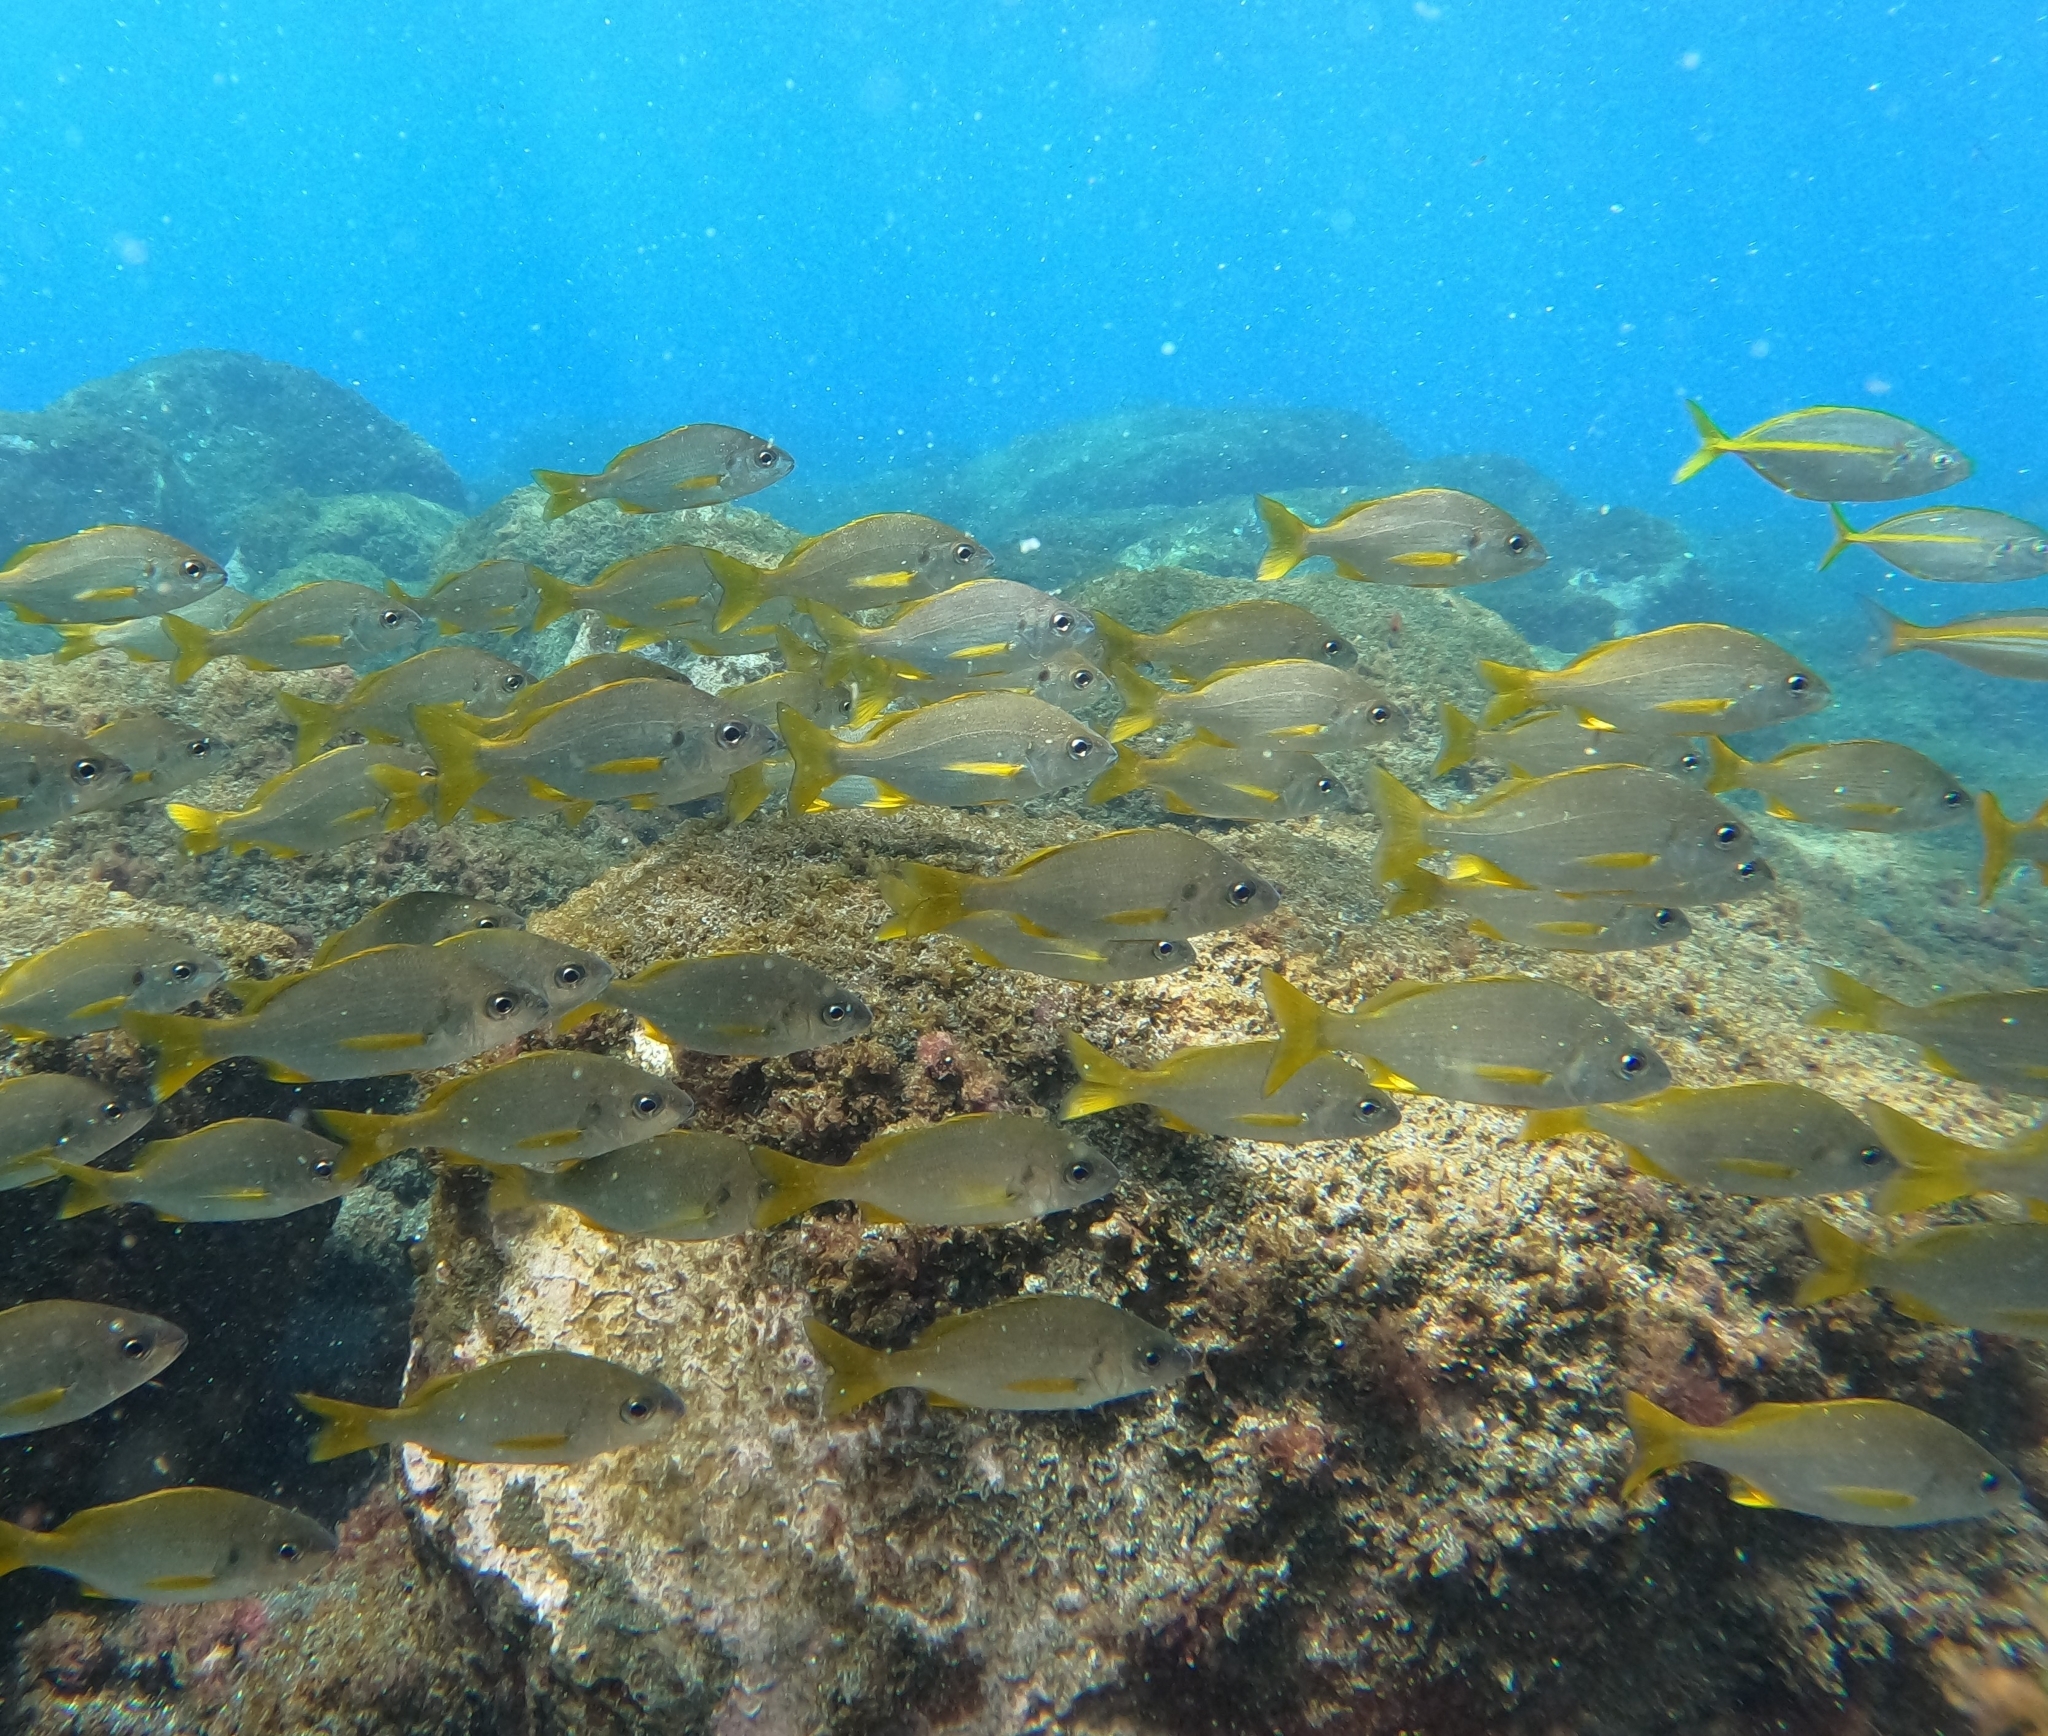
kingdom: Animalia
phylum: Chordata
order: Perciformes
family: Haemulidae
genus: Pomadasys
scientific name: Pomadasys incisus
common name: Bastard grunt
